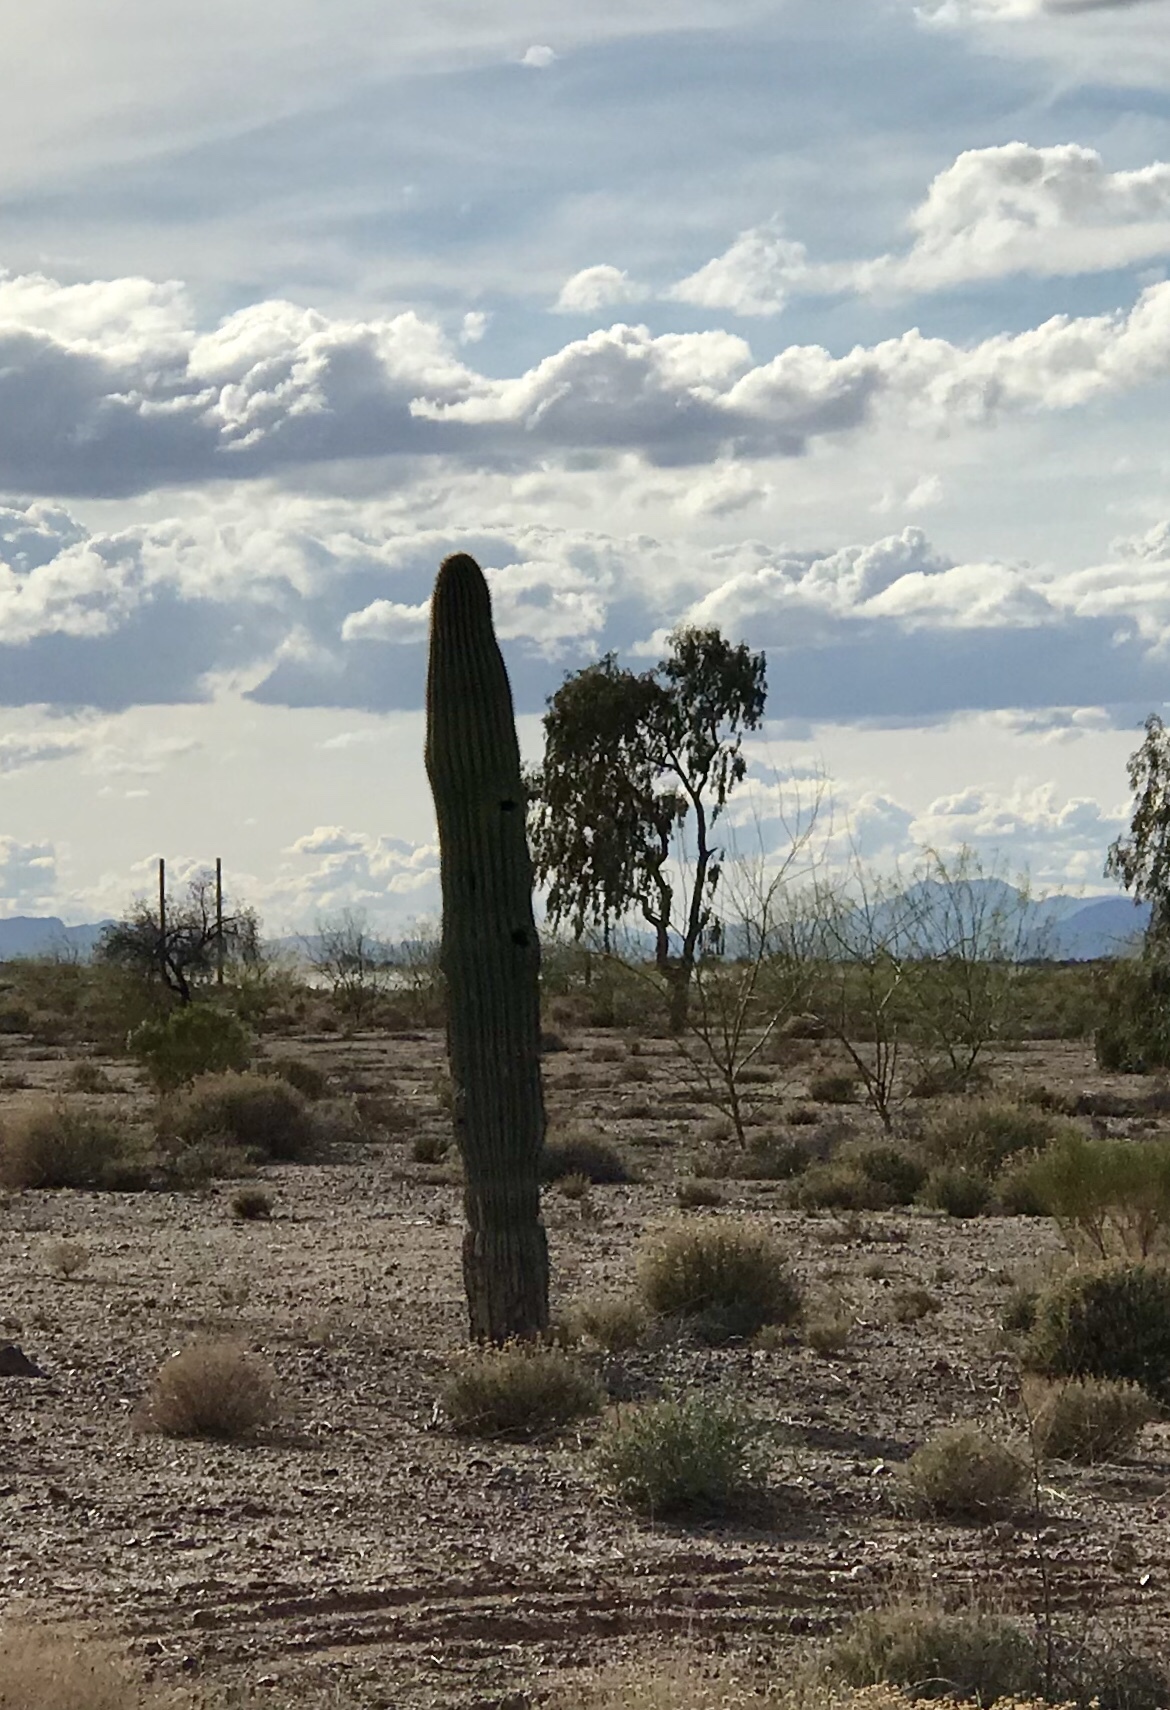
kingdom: Plantae
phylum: Tracheophyta
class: Magnoliopsida
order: Caryophyllales
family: Cactaceae
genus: Carnegiea
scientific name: Carnegiea gigantea
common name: Saguaro
